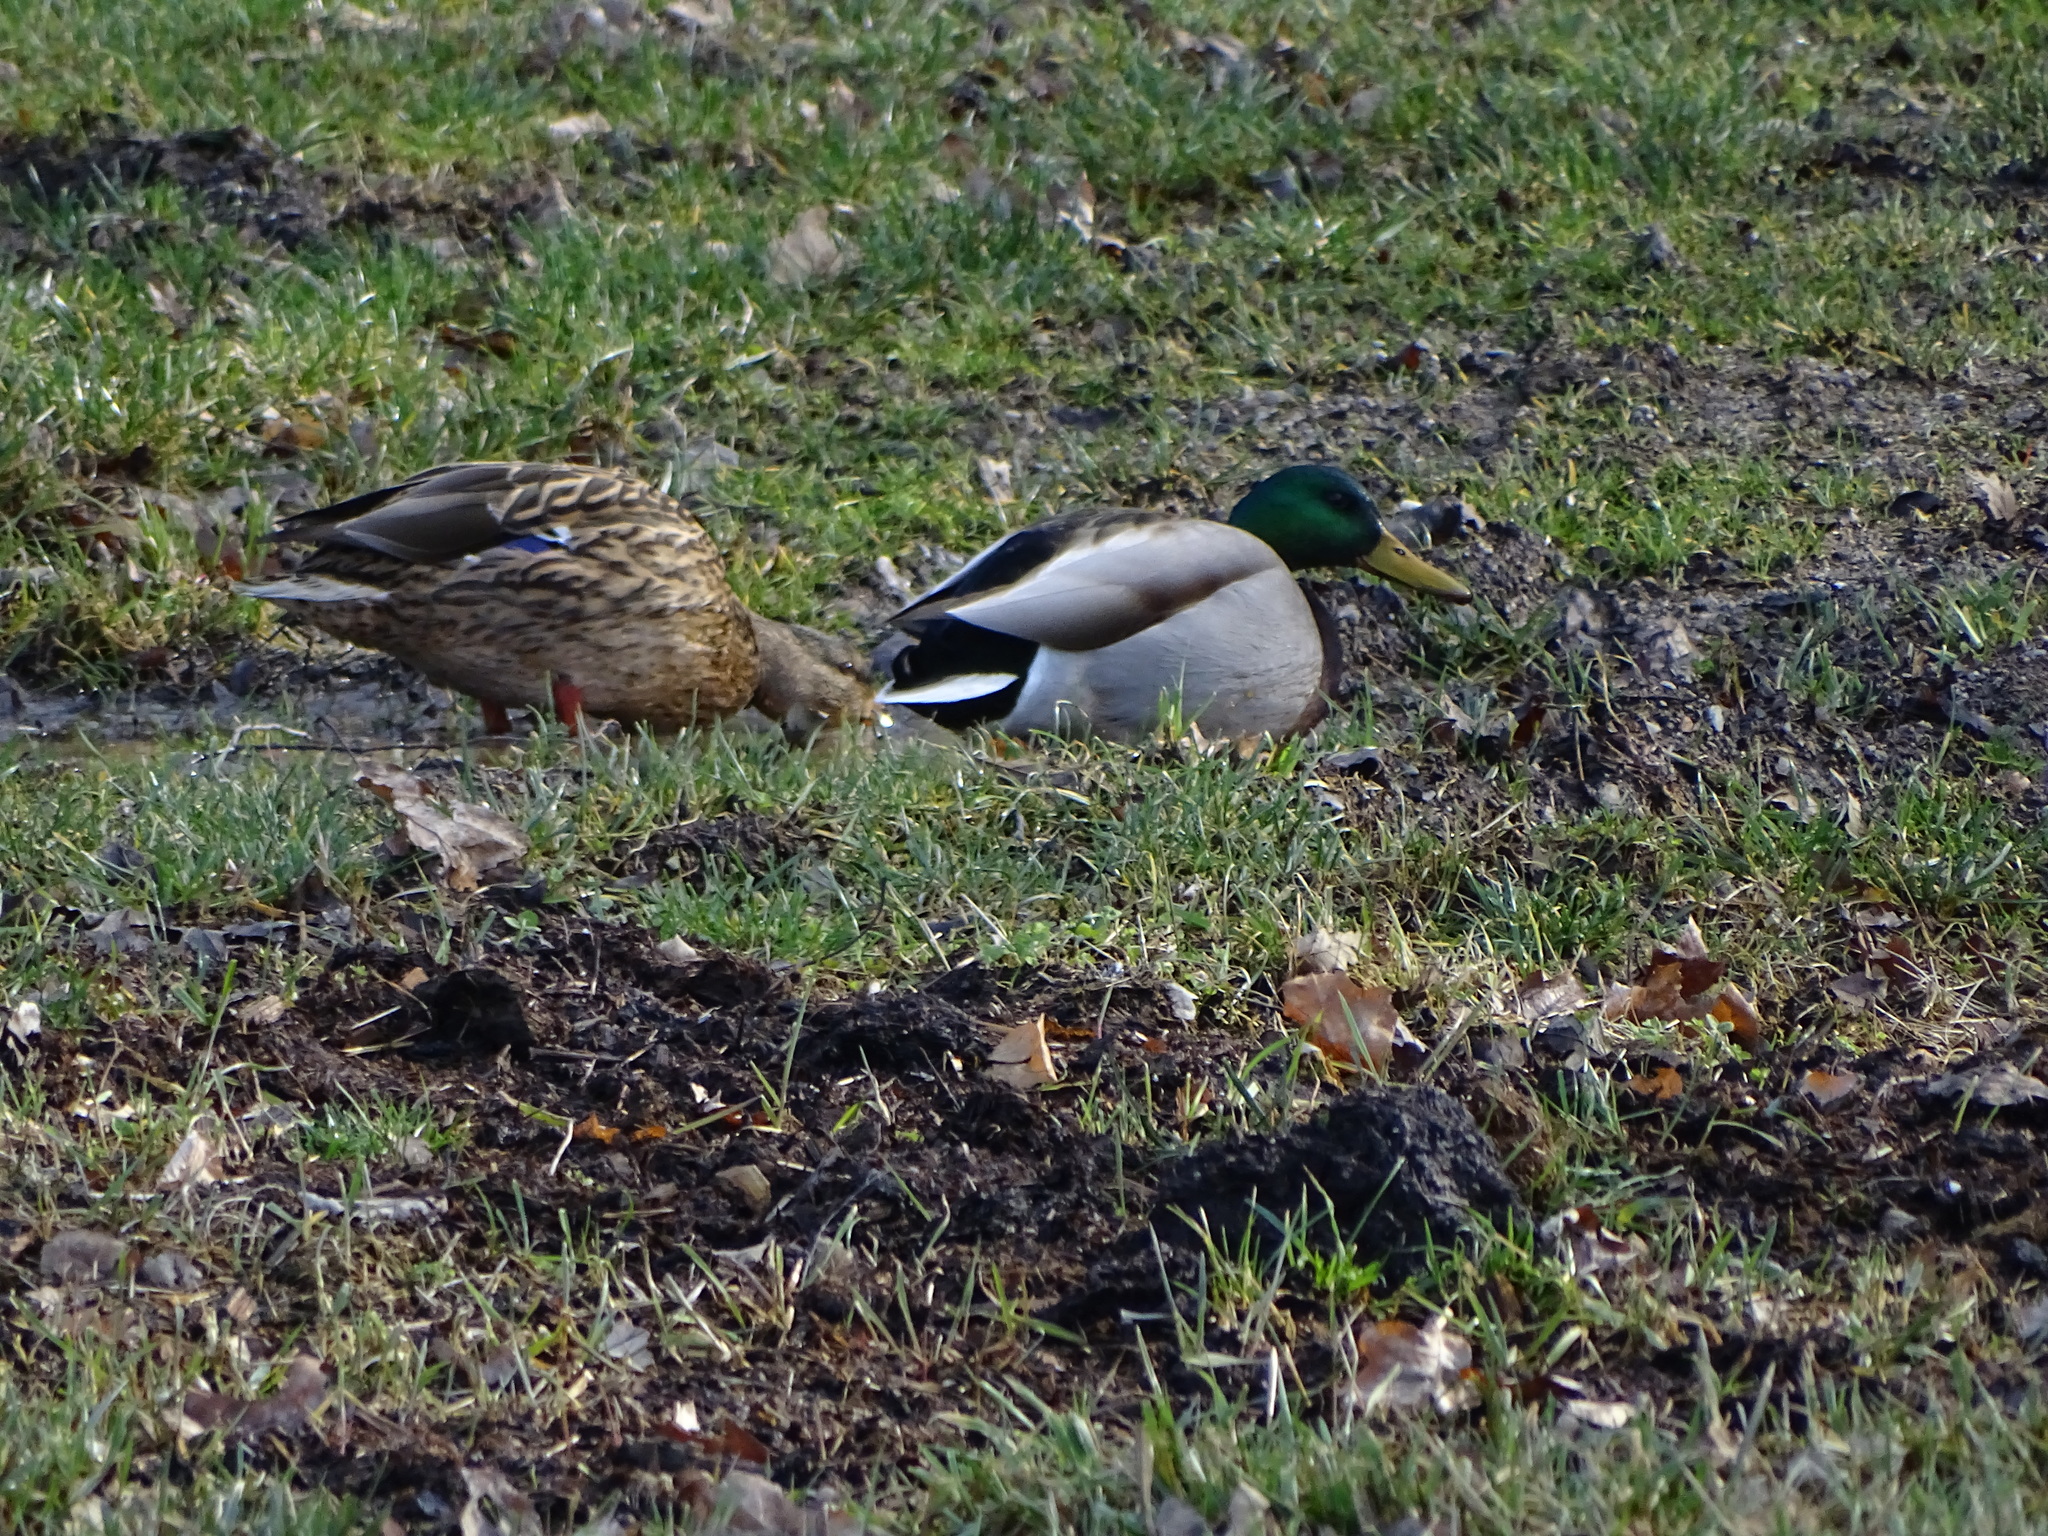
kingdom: Animalia
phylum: Chordata
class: Aves
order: Anseriformes
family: Anatidae
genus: Anas
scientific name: Anas platyrhynchos
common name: Mallard
